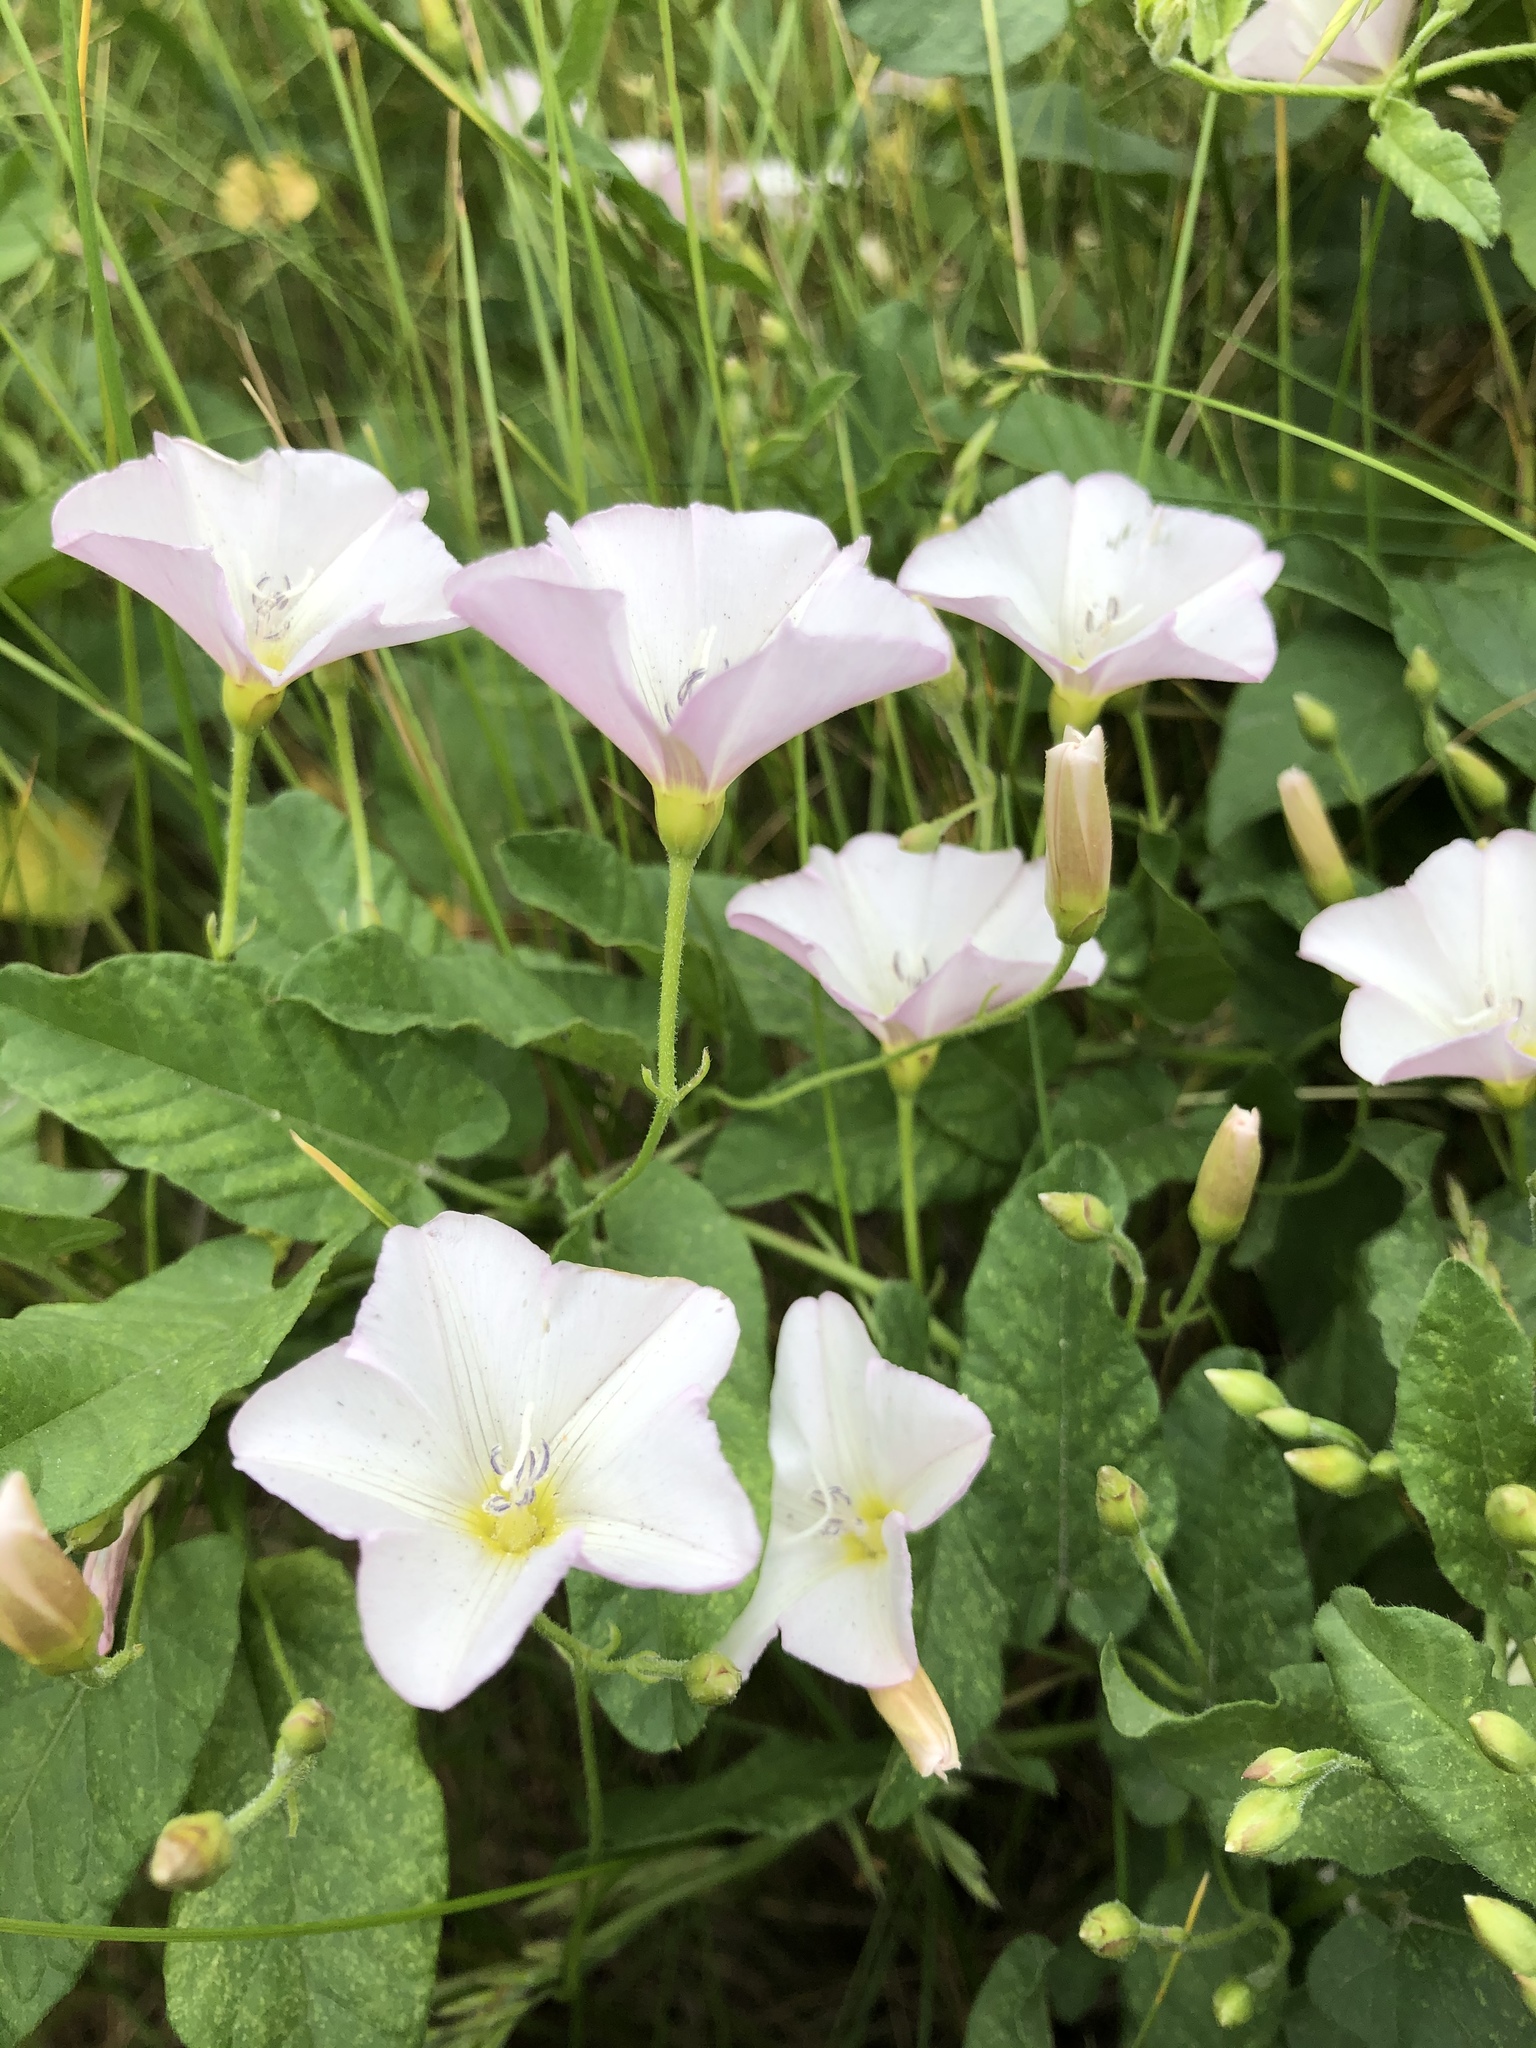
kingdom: Plantae
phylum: Tracheophyta
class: Magnoliopsida
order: Solanales
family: Convolvulaceae
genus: Convolvulus
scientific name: Convolvulus arvensis
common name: Field bindweed
